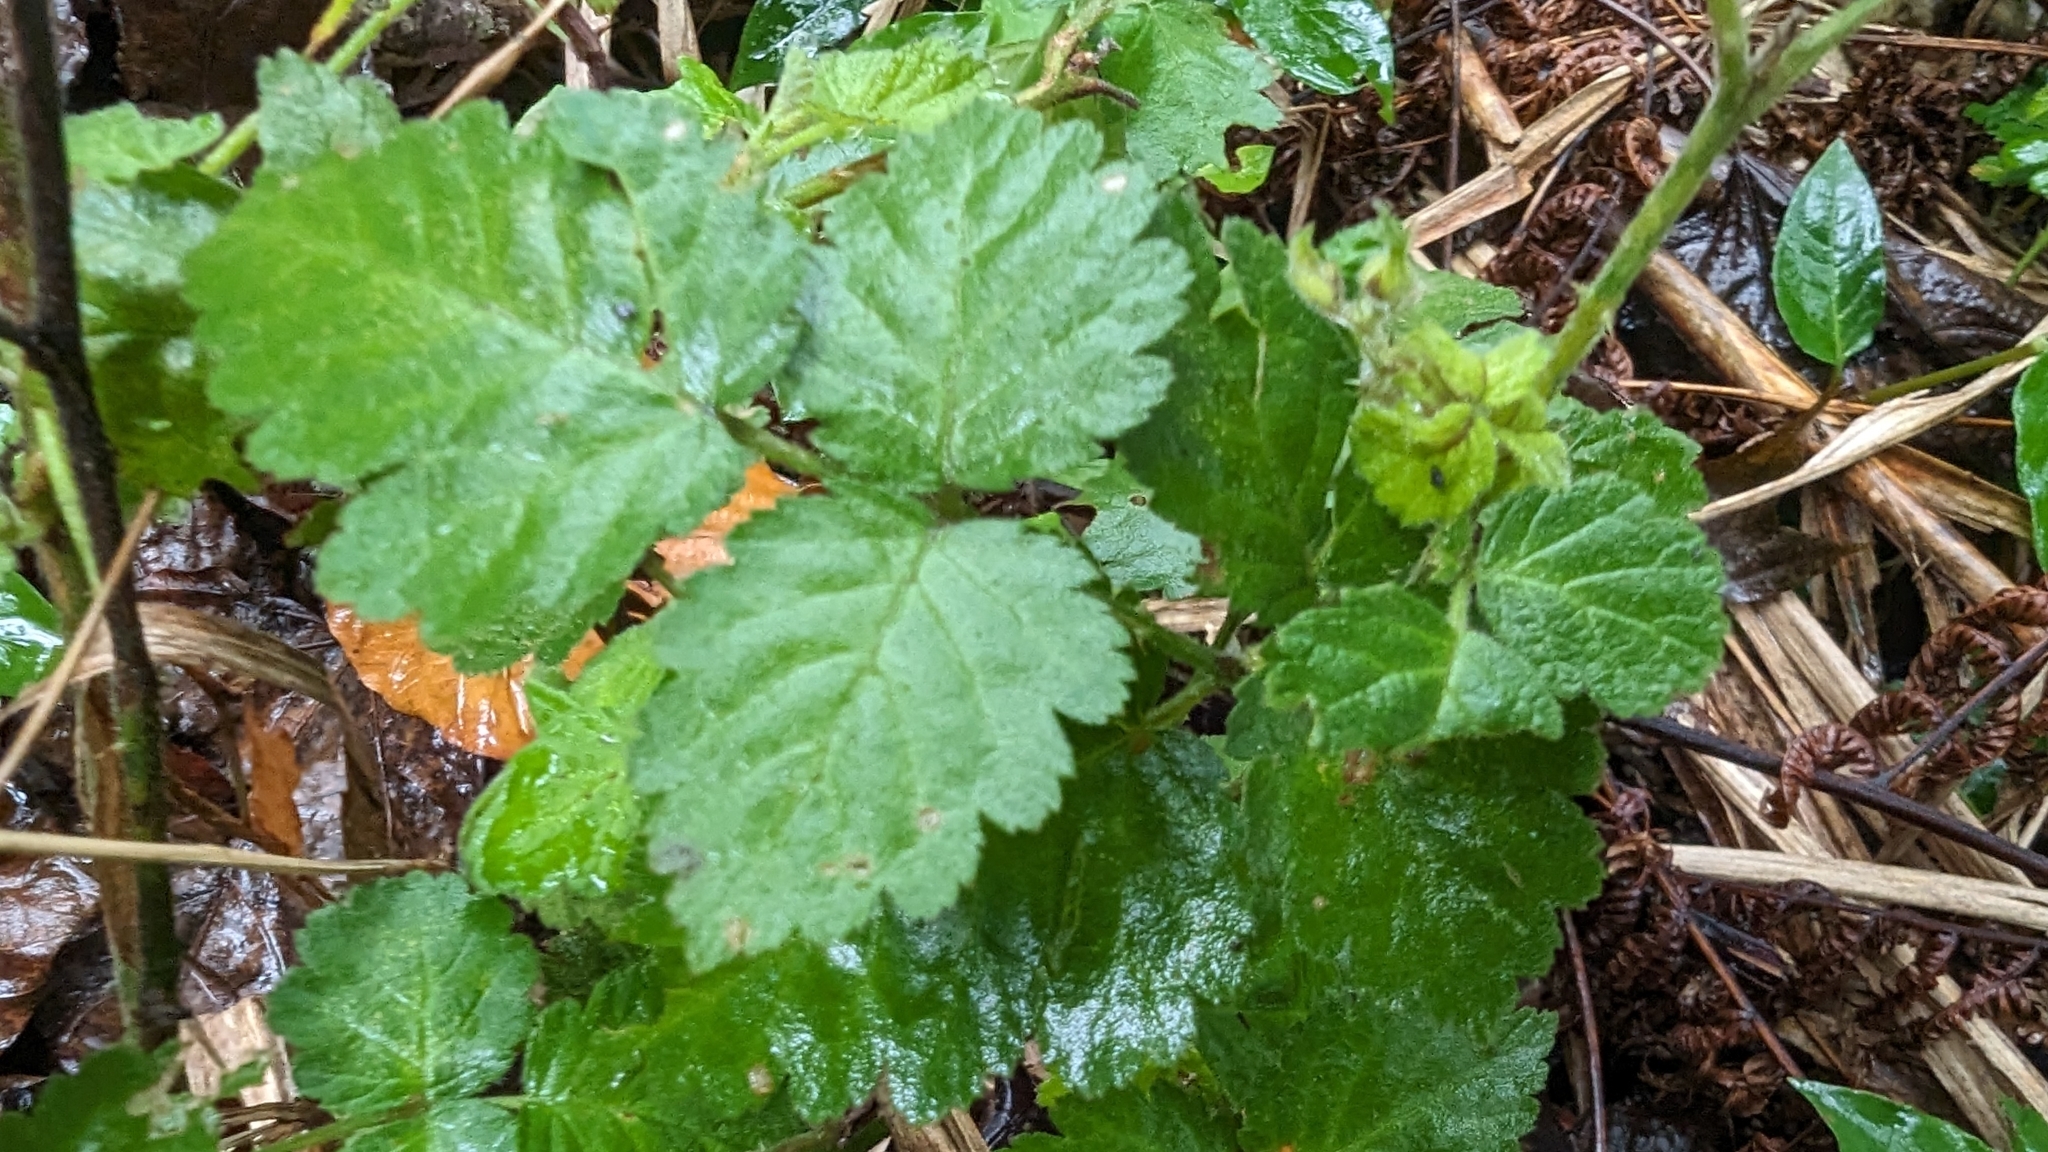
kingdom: Plantae
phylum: Tracheophyta
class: Magnoliopsida
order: Rosales
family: Rosaceae
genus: Rubus
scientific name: Rubus parvifolius
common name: Threeleaf blackberry
